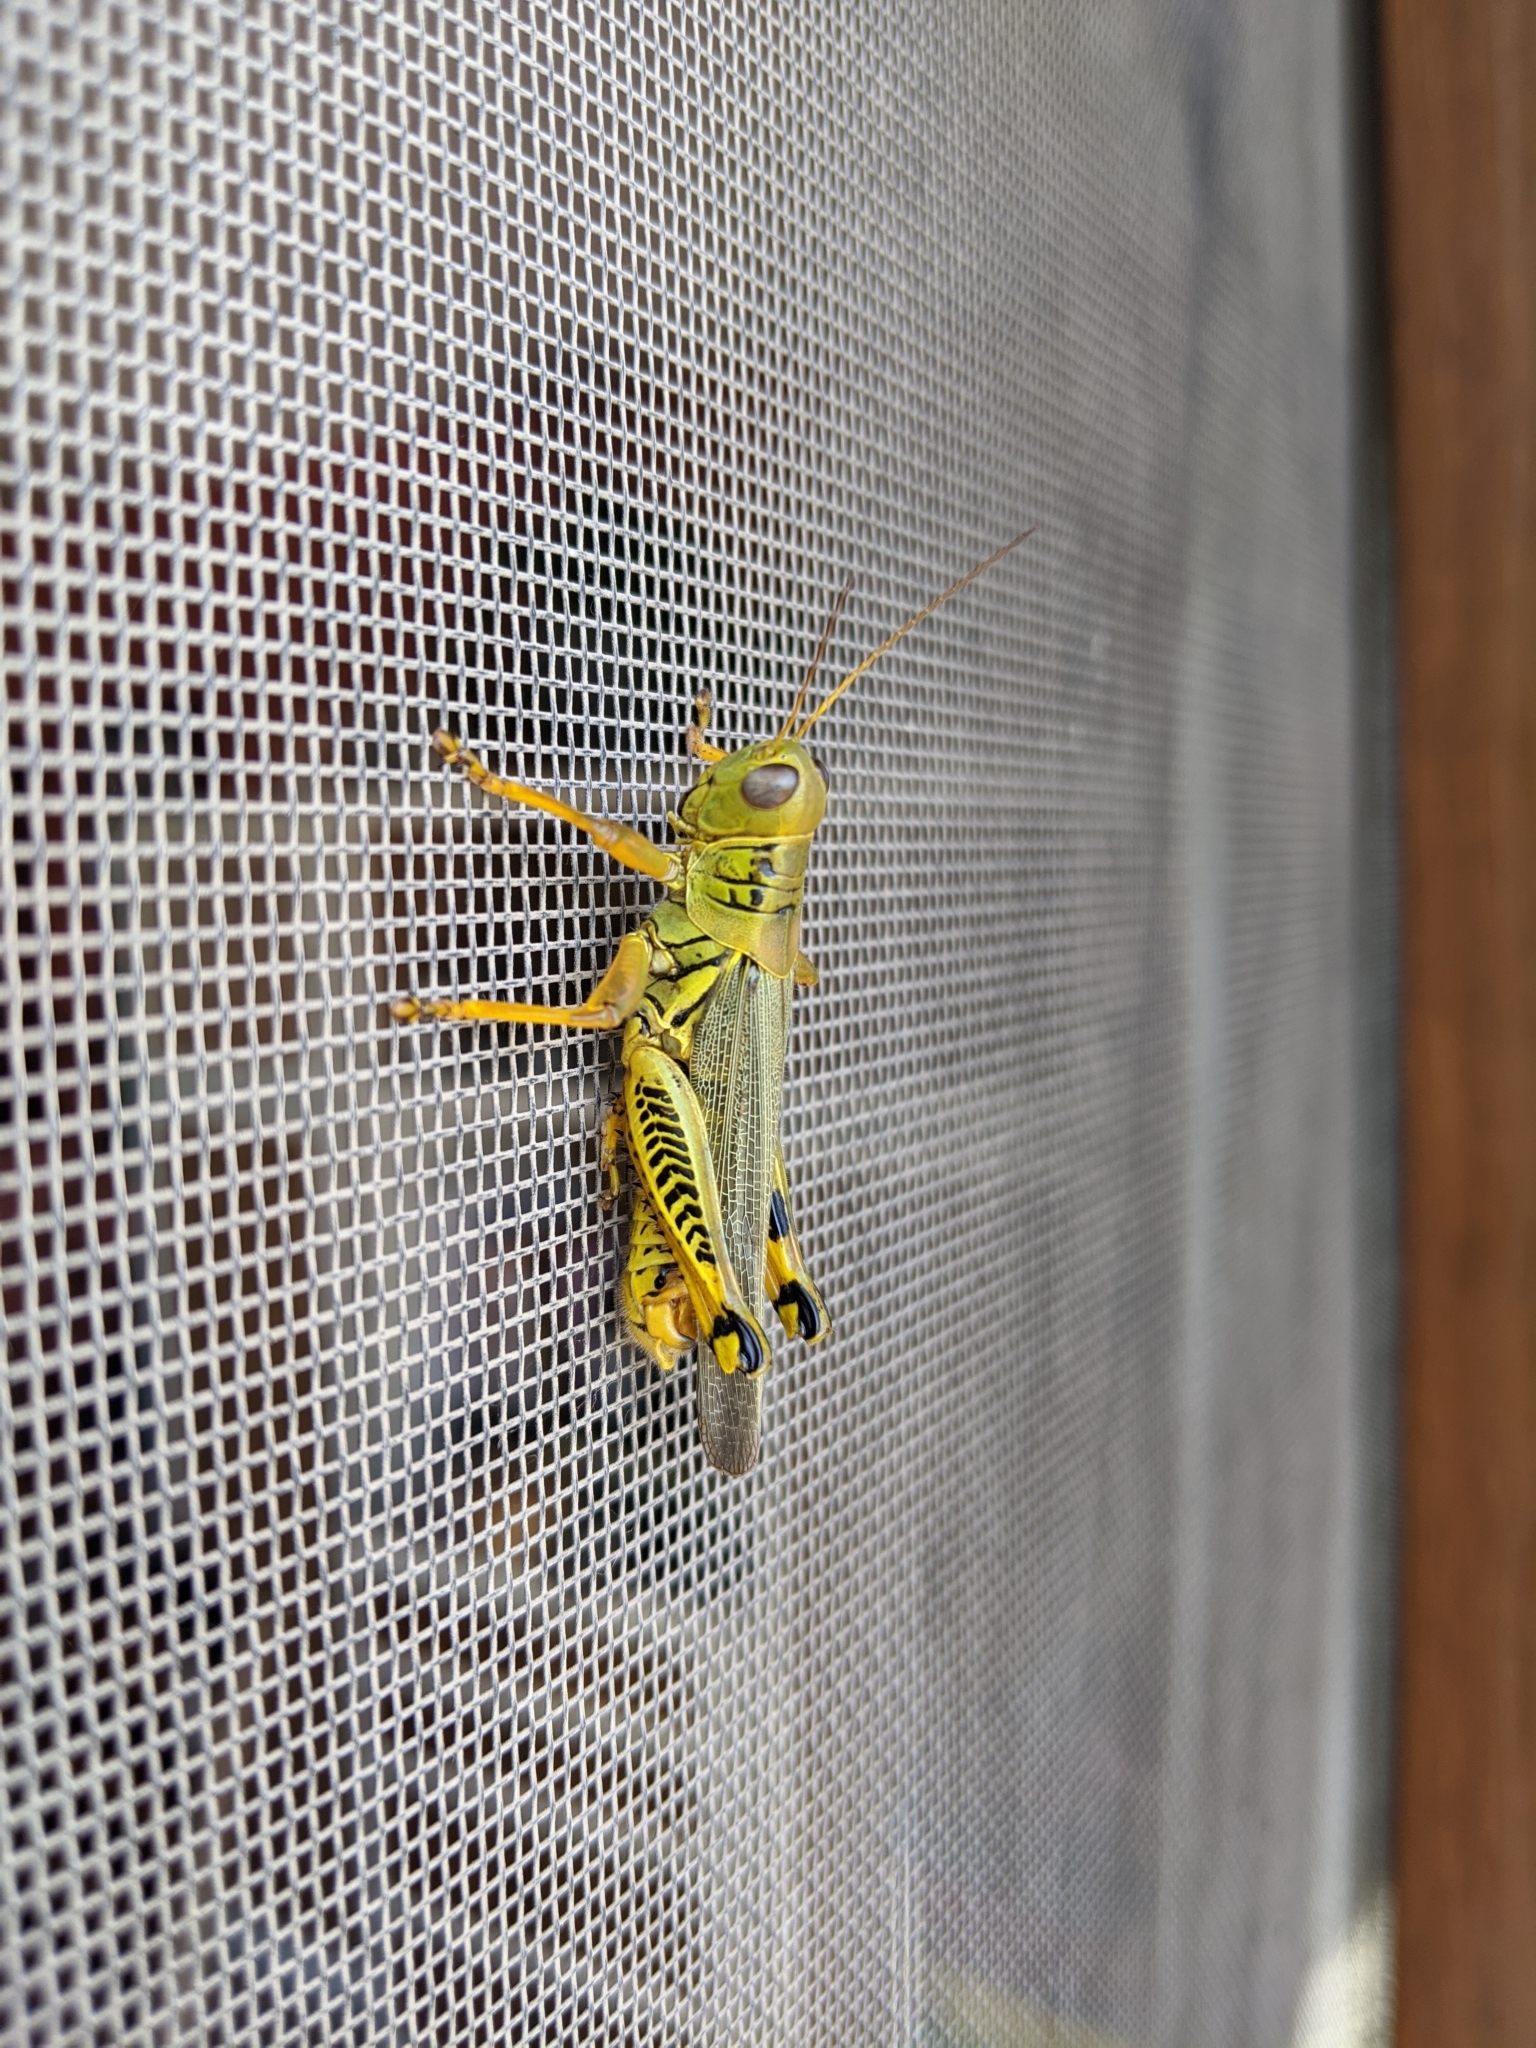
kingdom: Animalia
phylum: Arthropoda
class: Insecta
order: Orthoptera
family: Acrididae
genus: Melanoplus
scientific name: Melanoplus differentialis
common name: Differential grasshopper
